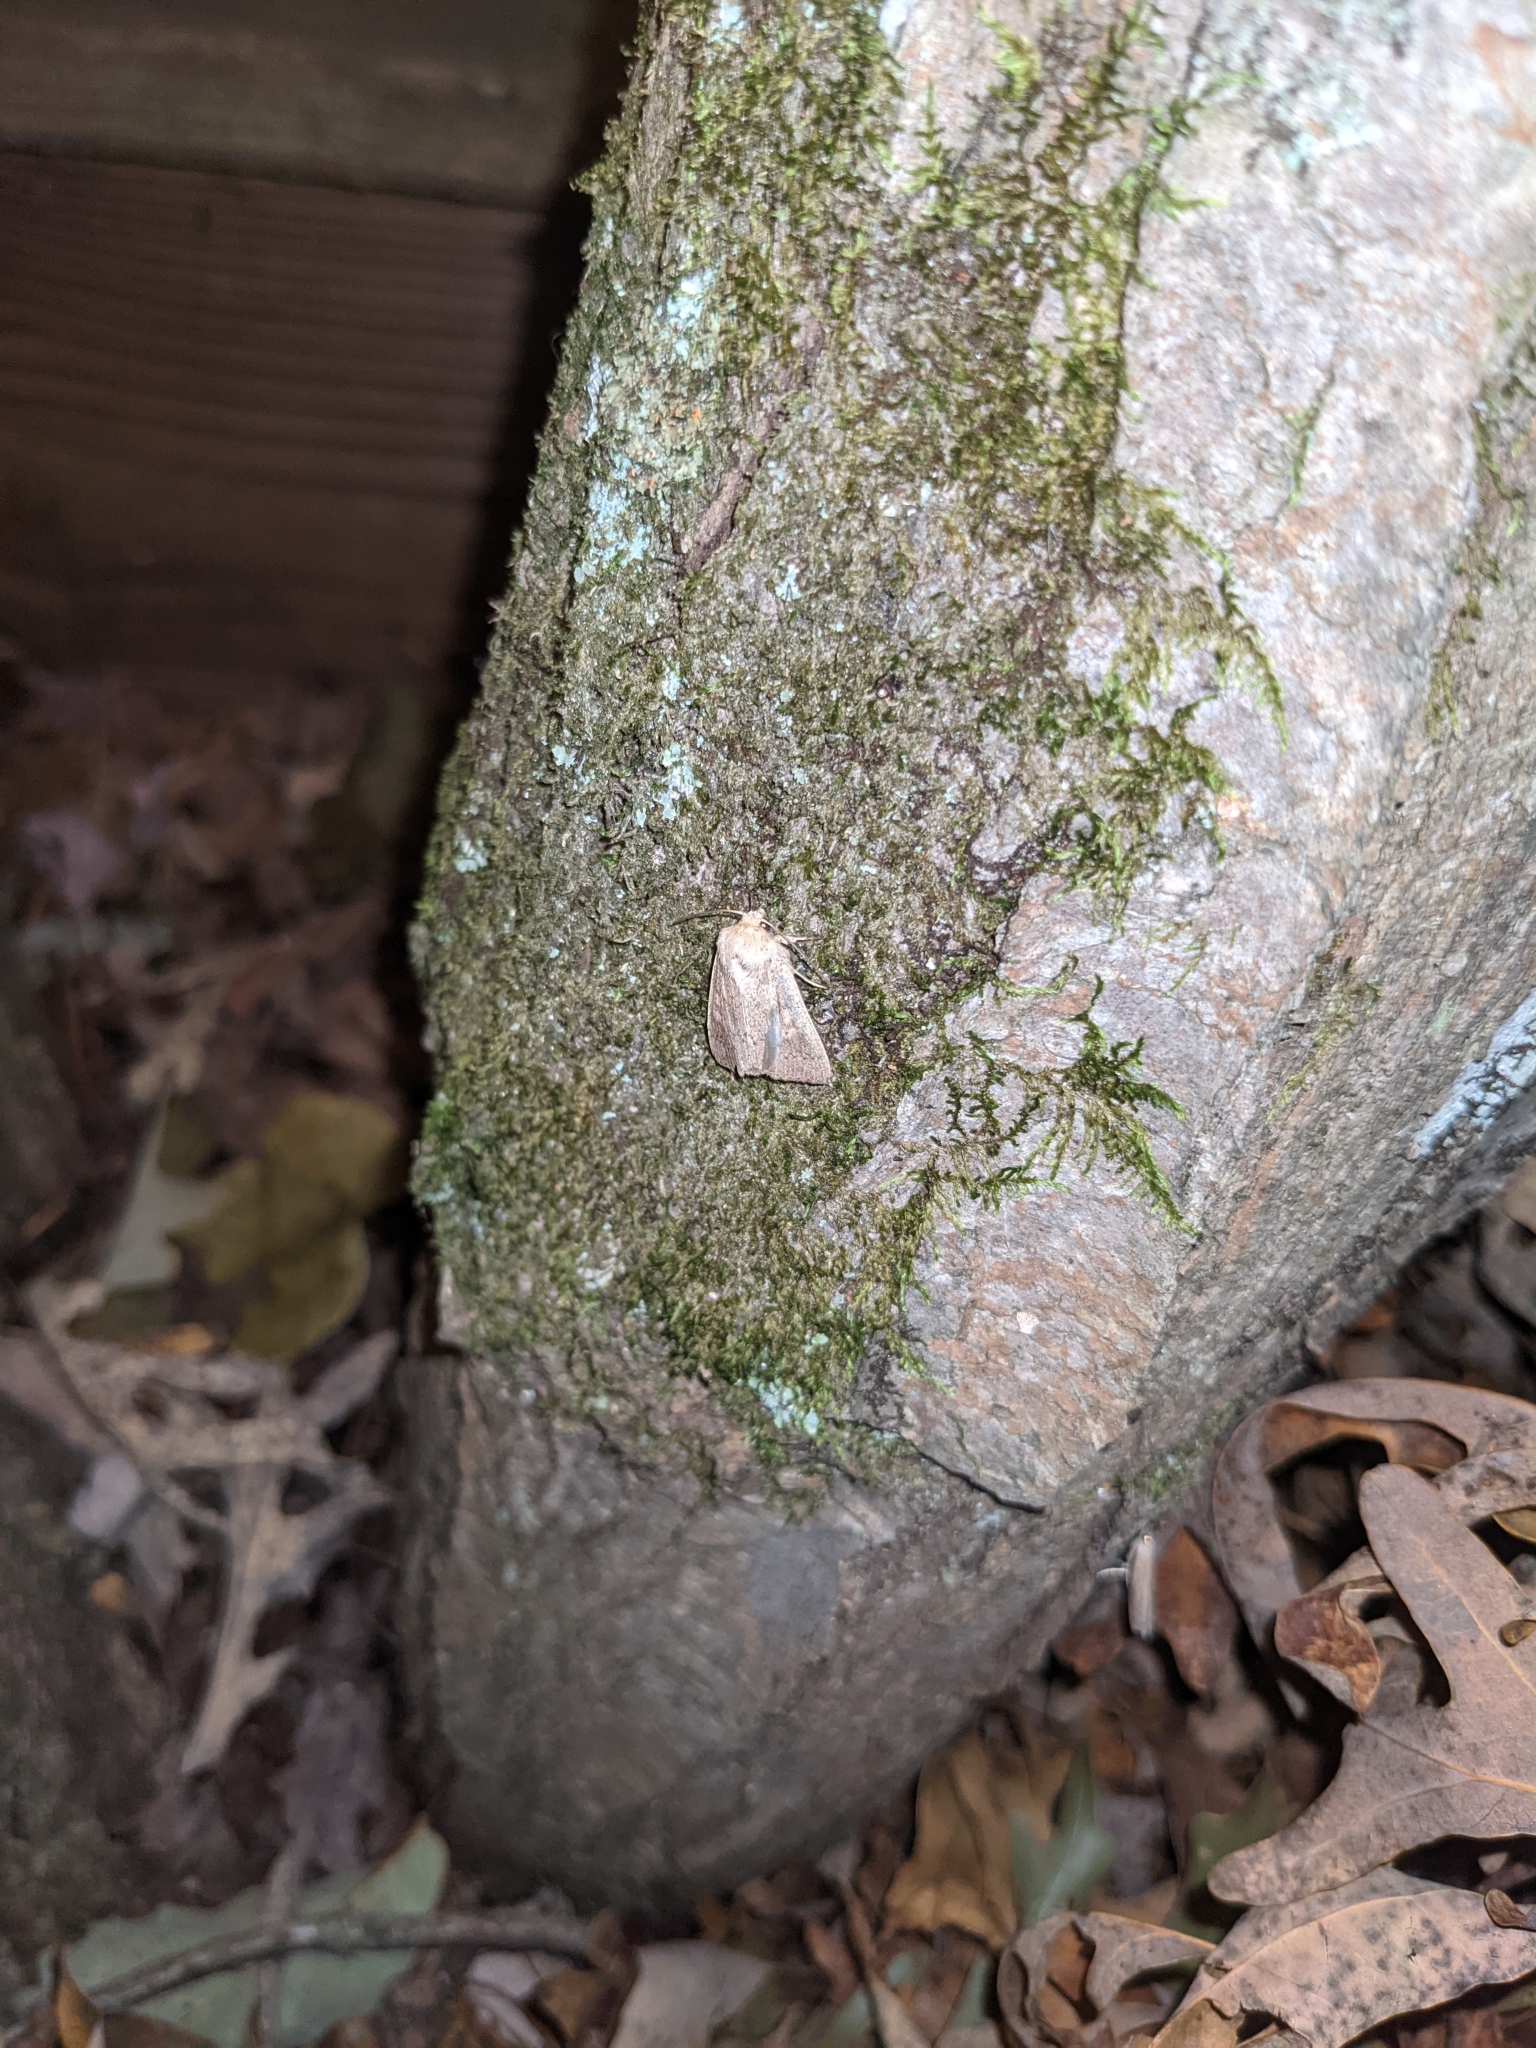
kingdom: Animalia
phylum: Arthropoda
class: Insecta
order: Lepidoptera
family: Noctuidae
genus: Leucania
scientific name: Leucania ursula
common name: Ursula wainscot
